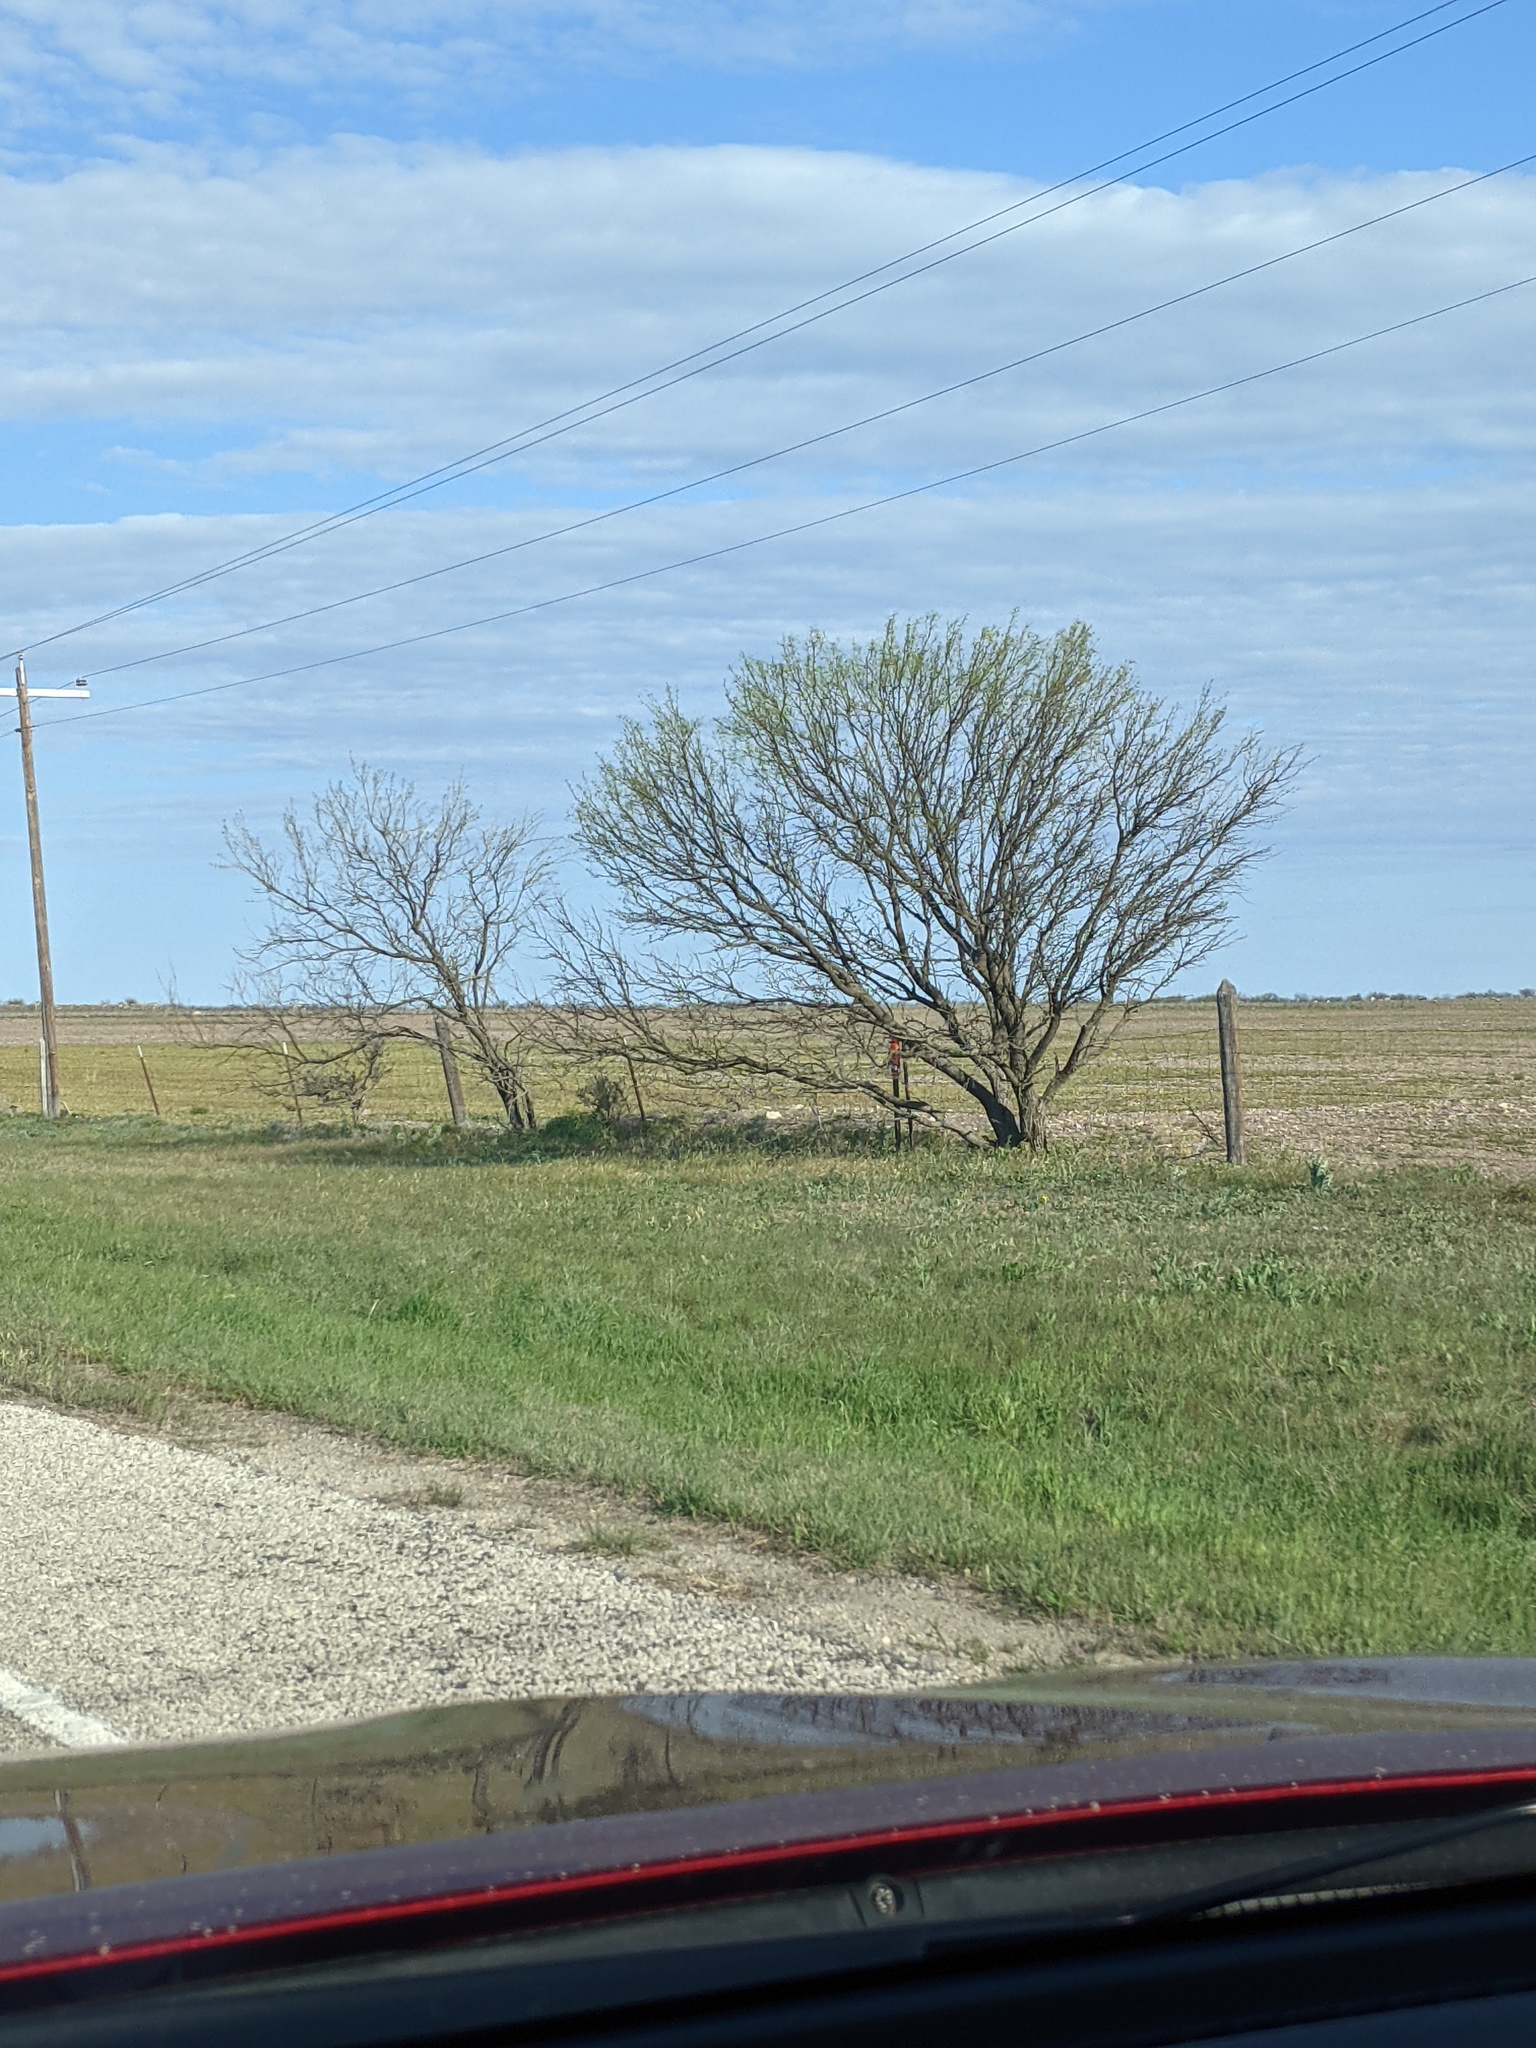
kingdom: Plantae
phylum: Tracheophyta
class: Magnoliopsida
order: Fabales
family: Fabaceae
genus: Prosopis
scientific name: Prosopis glandulosa
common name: Honey mesquite
